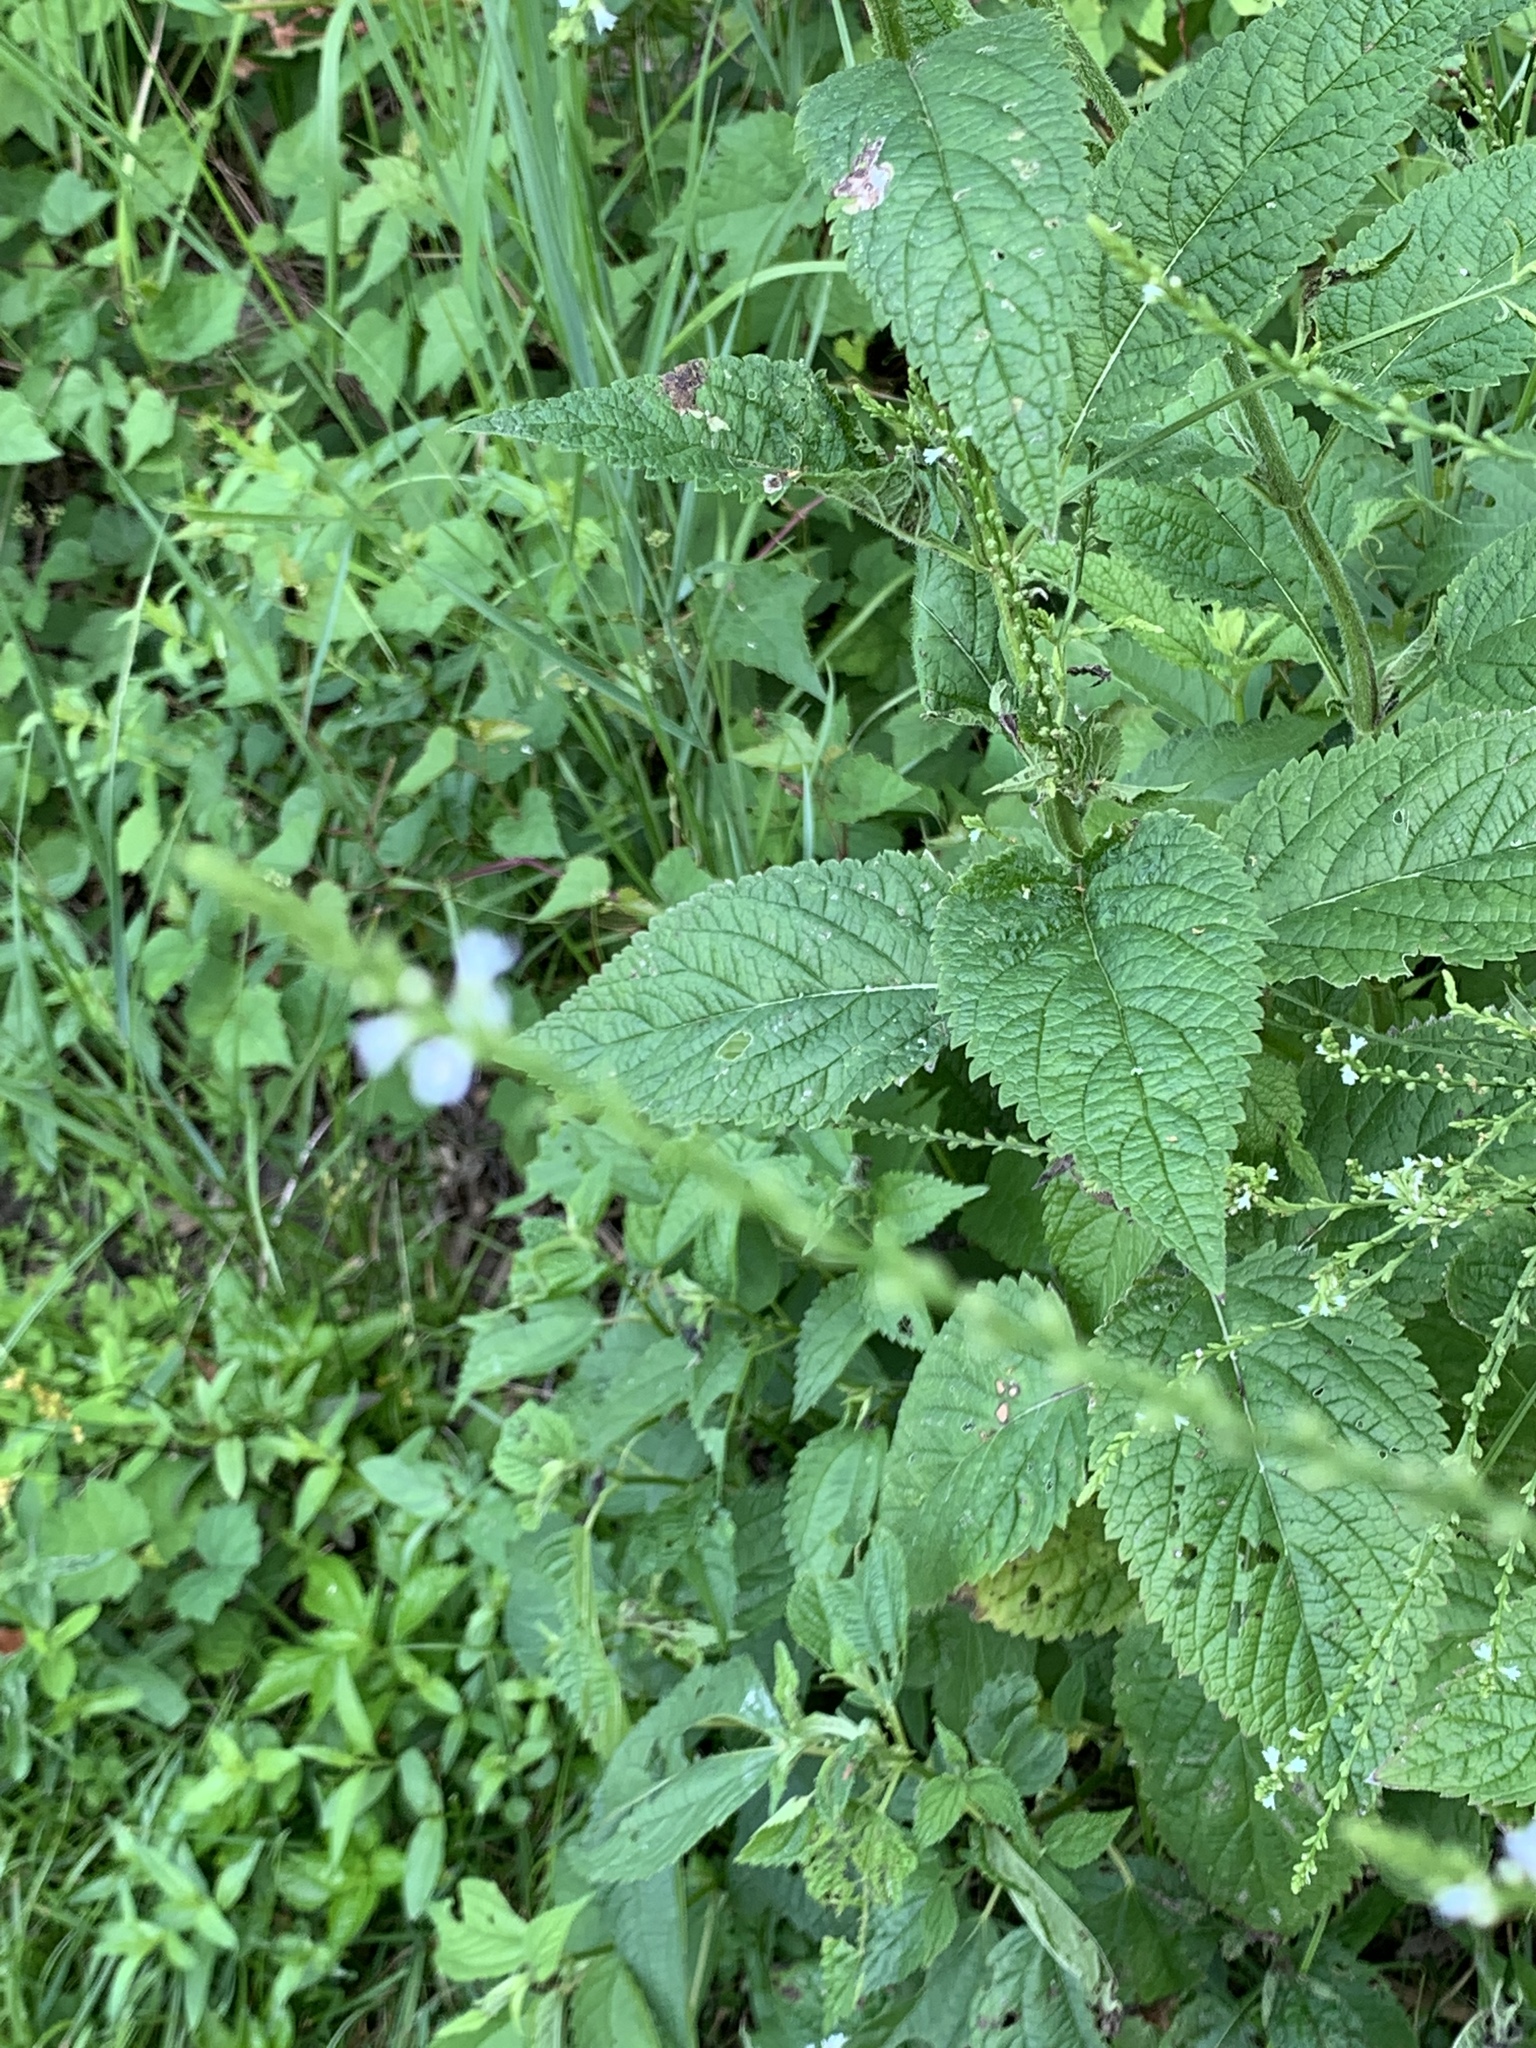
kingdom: Plantae
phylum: Tracheophyta
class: Magnoliopsida
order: Lamiales
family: Verbenaceae
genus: Verbena
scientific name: Verbena urticifolia
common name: Nettle-leaved vervain
